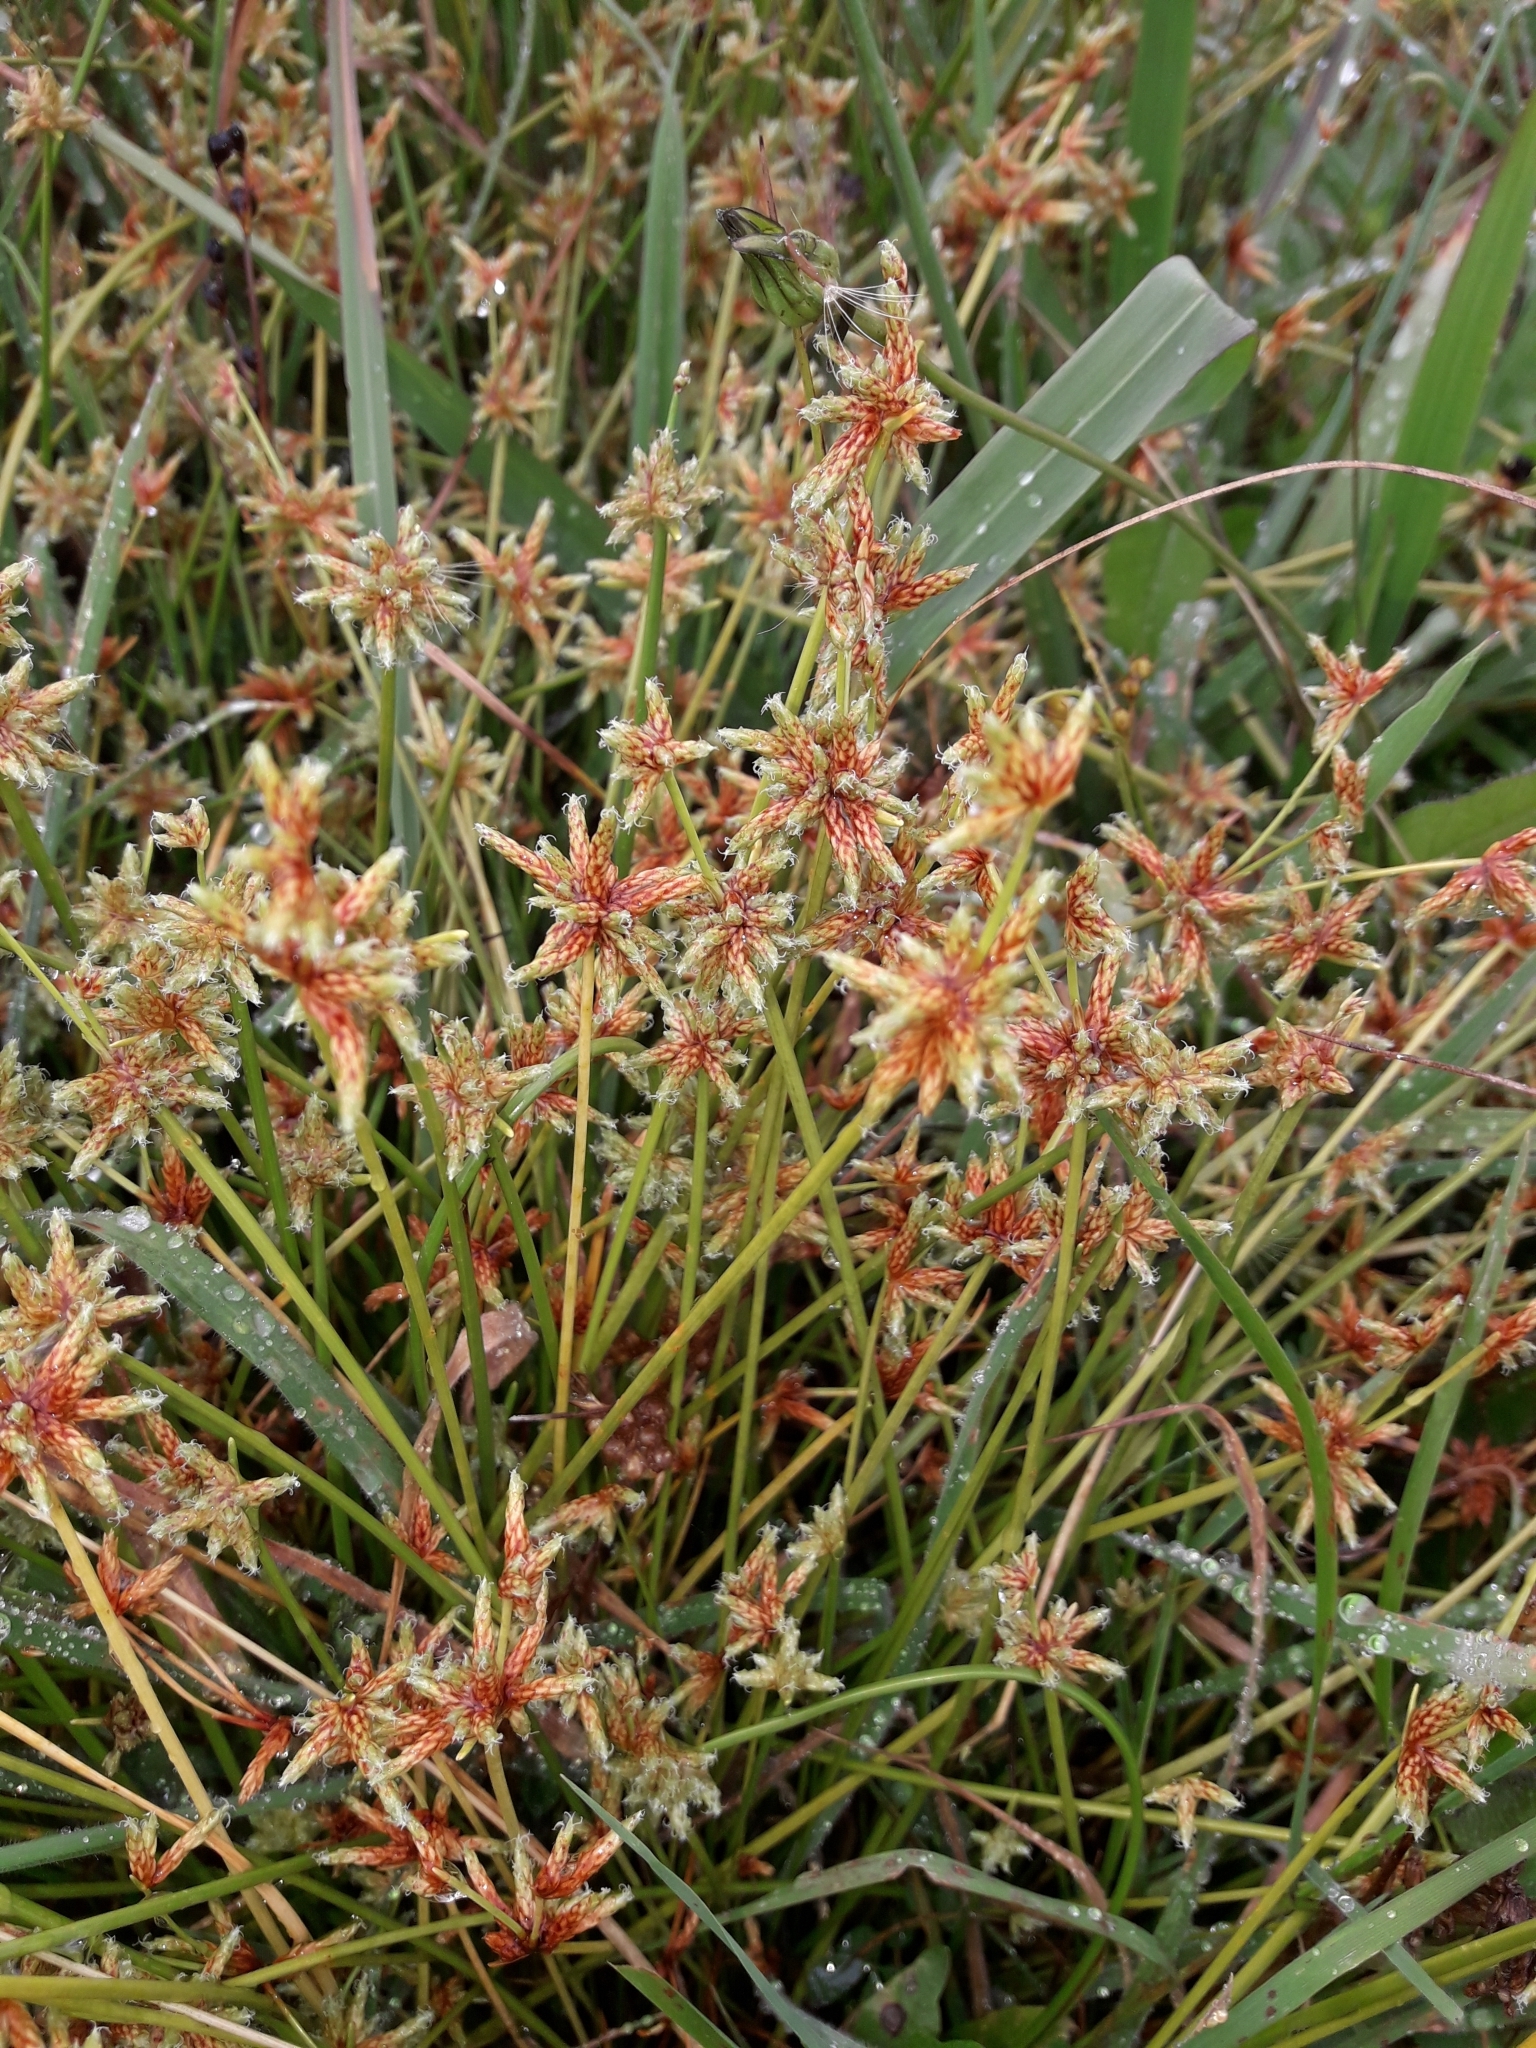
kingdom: Plantae
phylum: Tracheophyta
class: Liliopsida
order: Poales
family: Cyperaceae
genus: Isolepis
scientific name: Isolepis prolifera
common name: Proliferating bulrush
